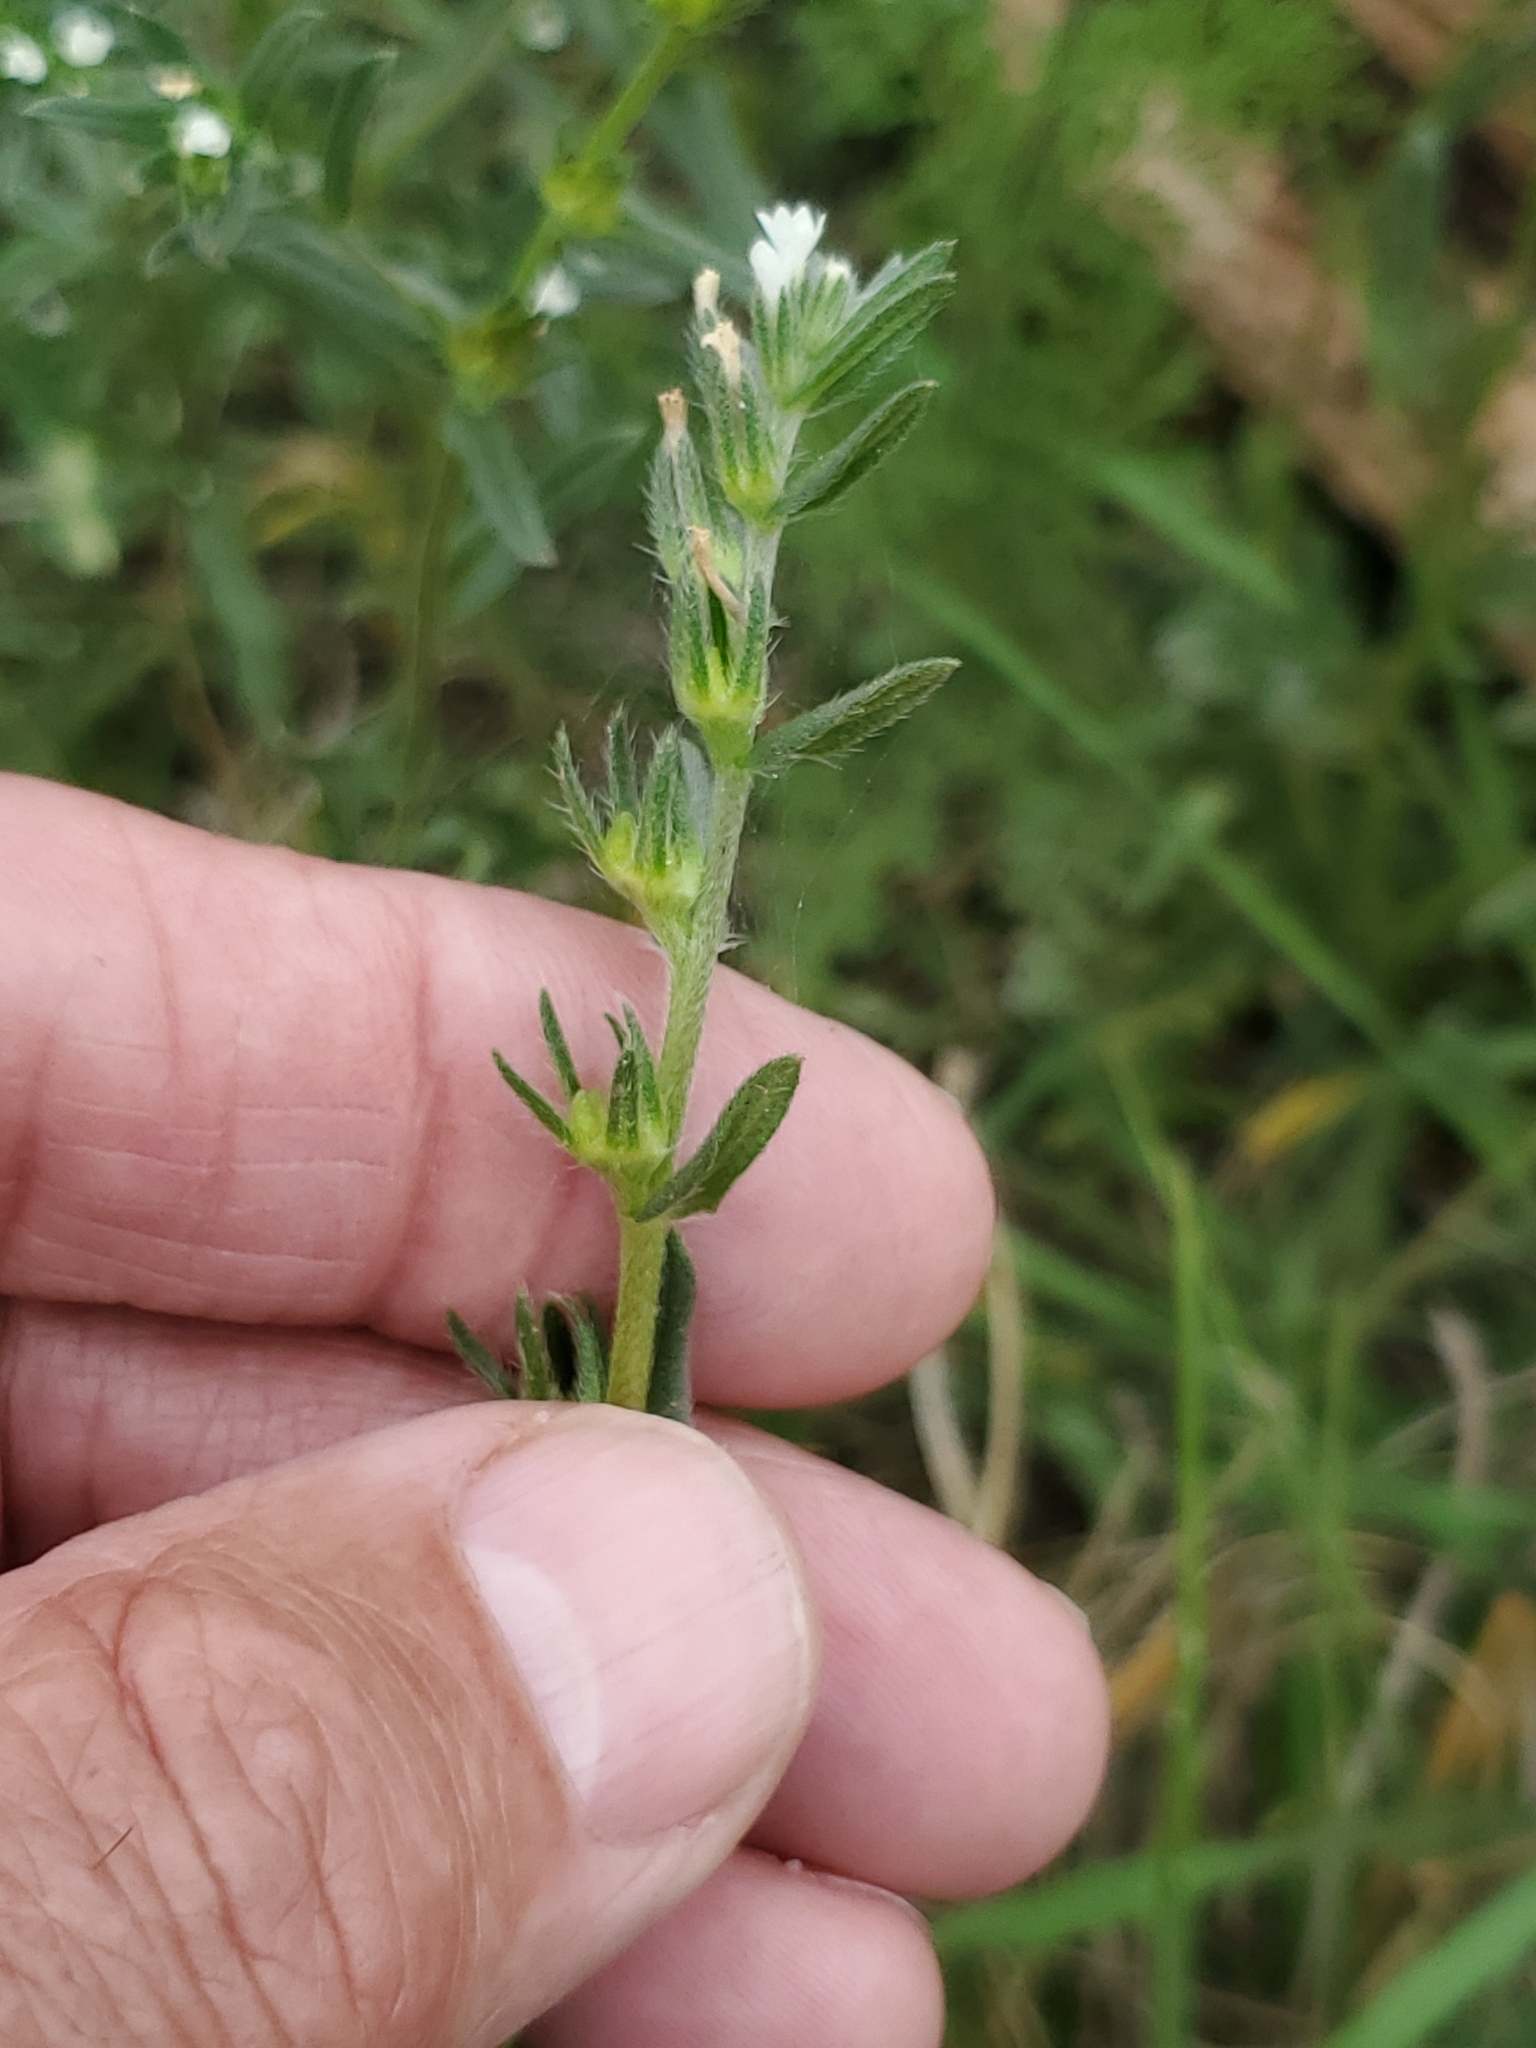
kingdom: Plantae
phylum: Tracheophyta
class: Magnoliopsida
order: Boraginales
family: Boraginaceae
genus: Buglossoides
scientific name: Buglossoides arvensis
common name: Corn gromwell
